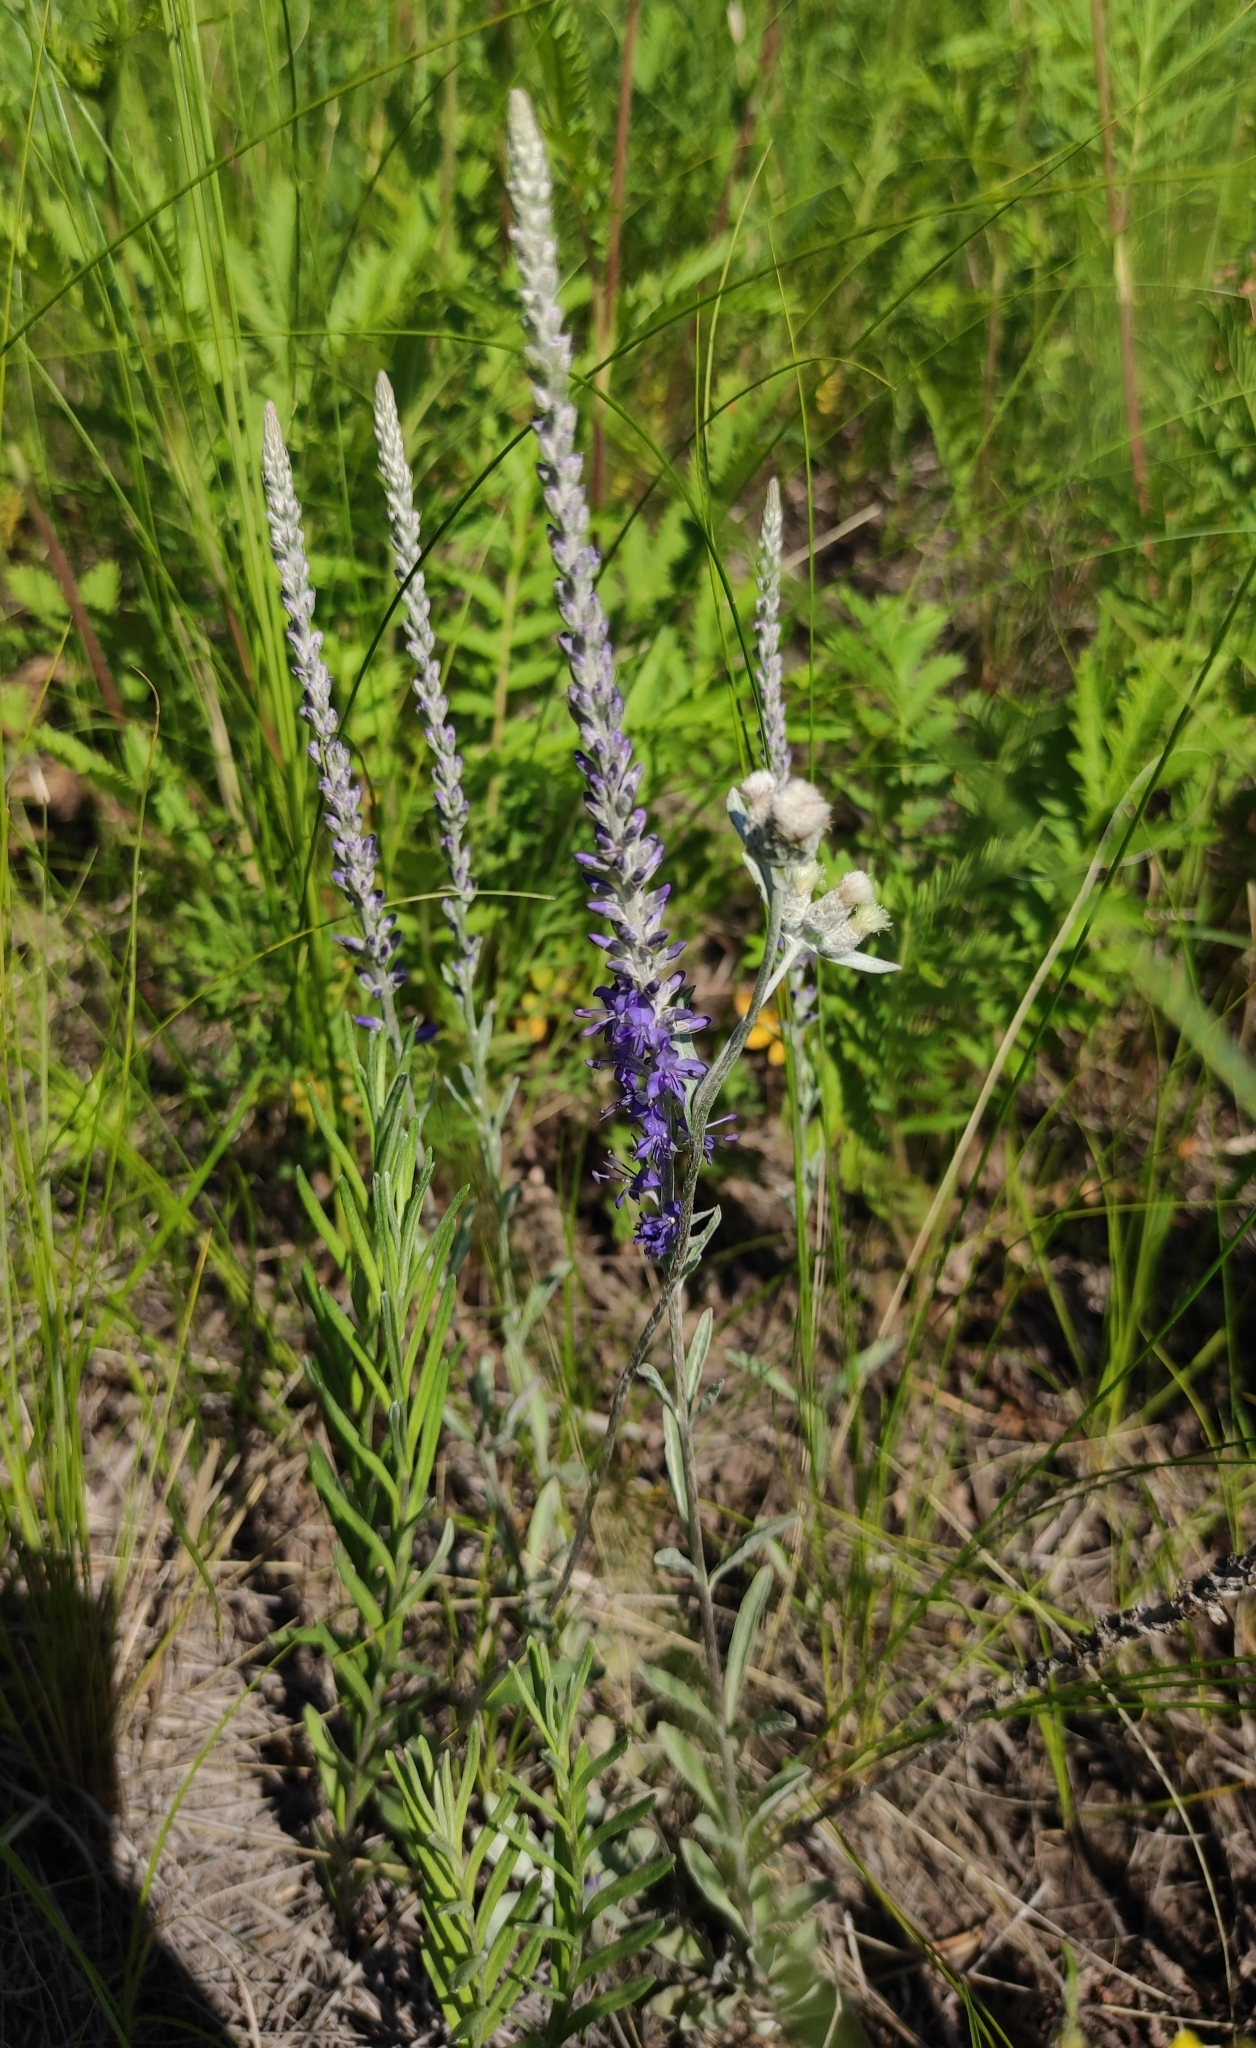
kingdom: Plantae
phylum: Tracheophyta
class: Magnoliopsida
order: Lamiales
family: Plantaginaceae
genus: Veronica
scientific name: Veronica incana
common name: Silver speedwell
